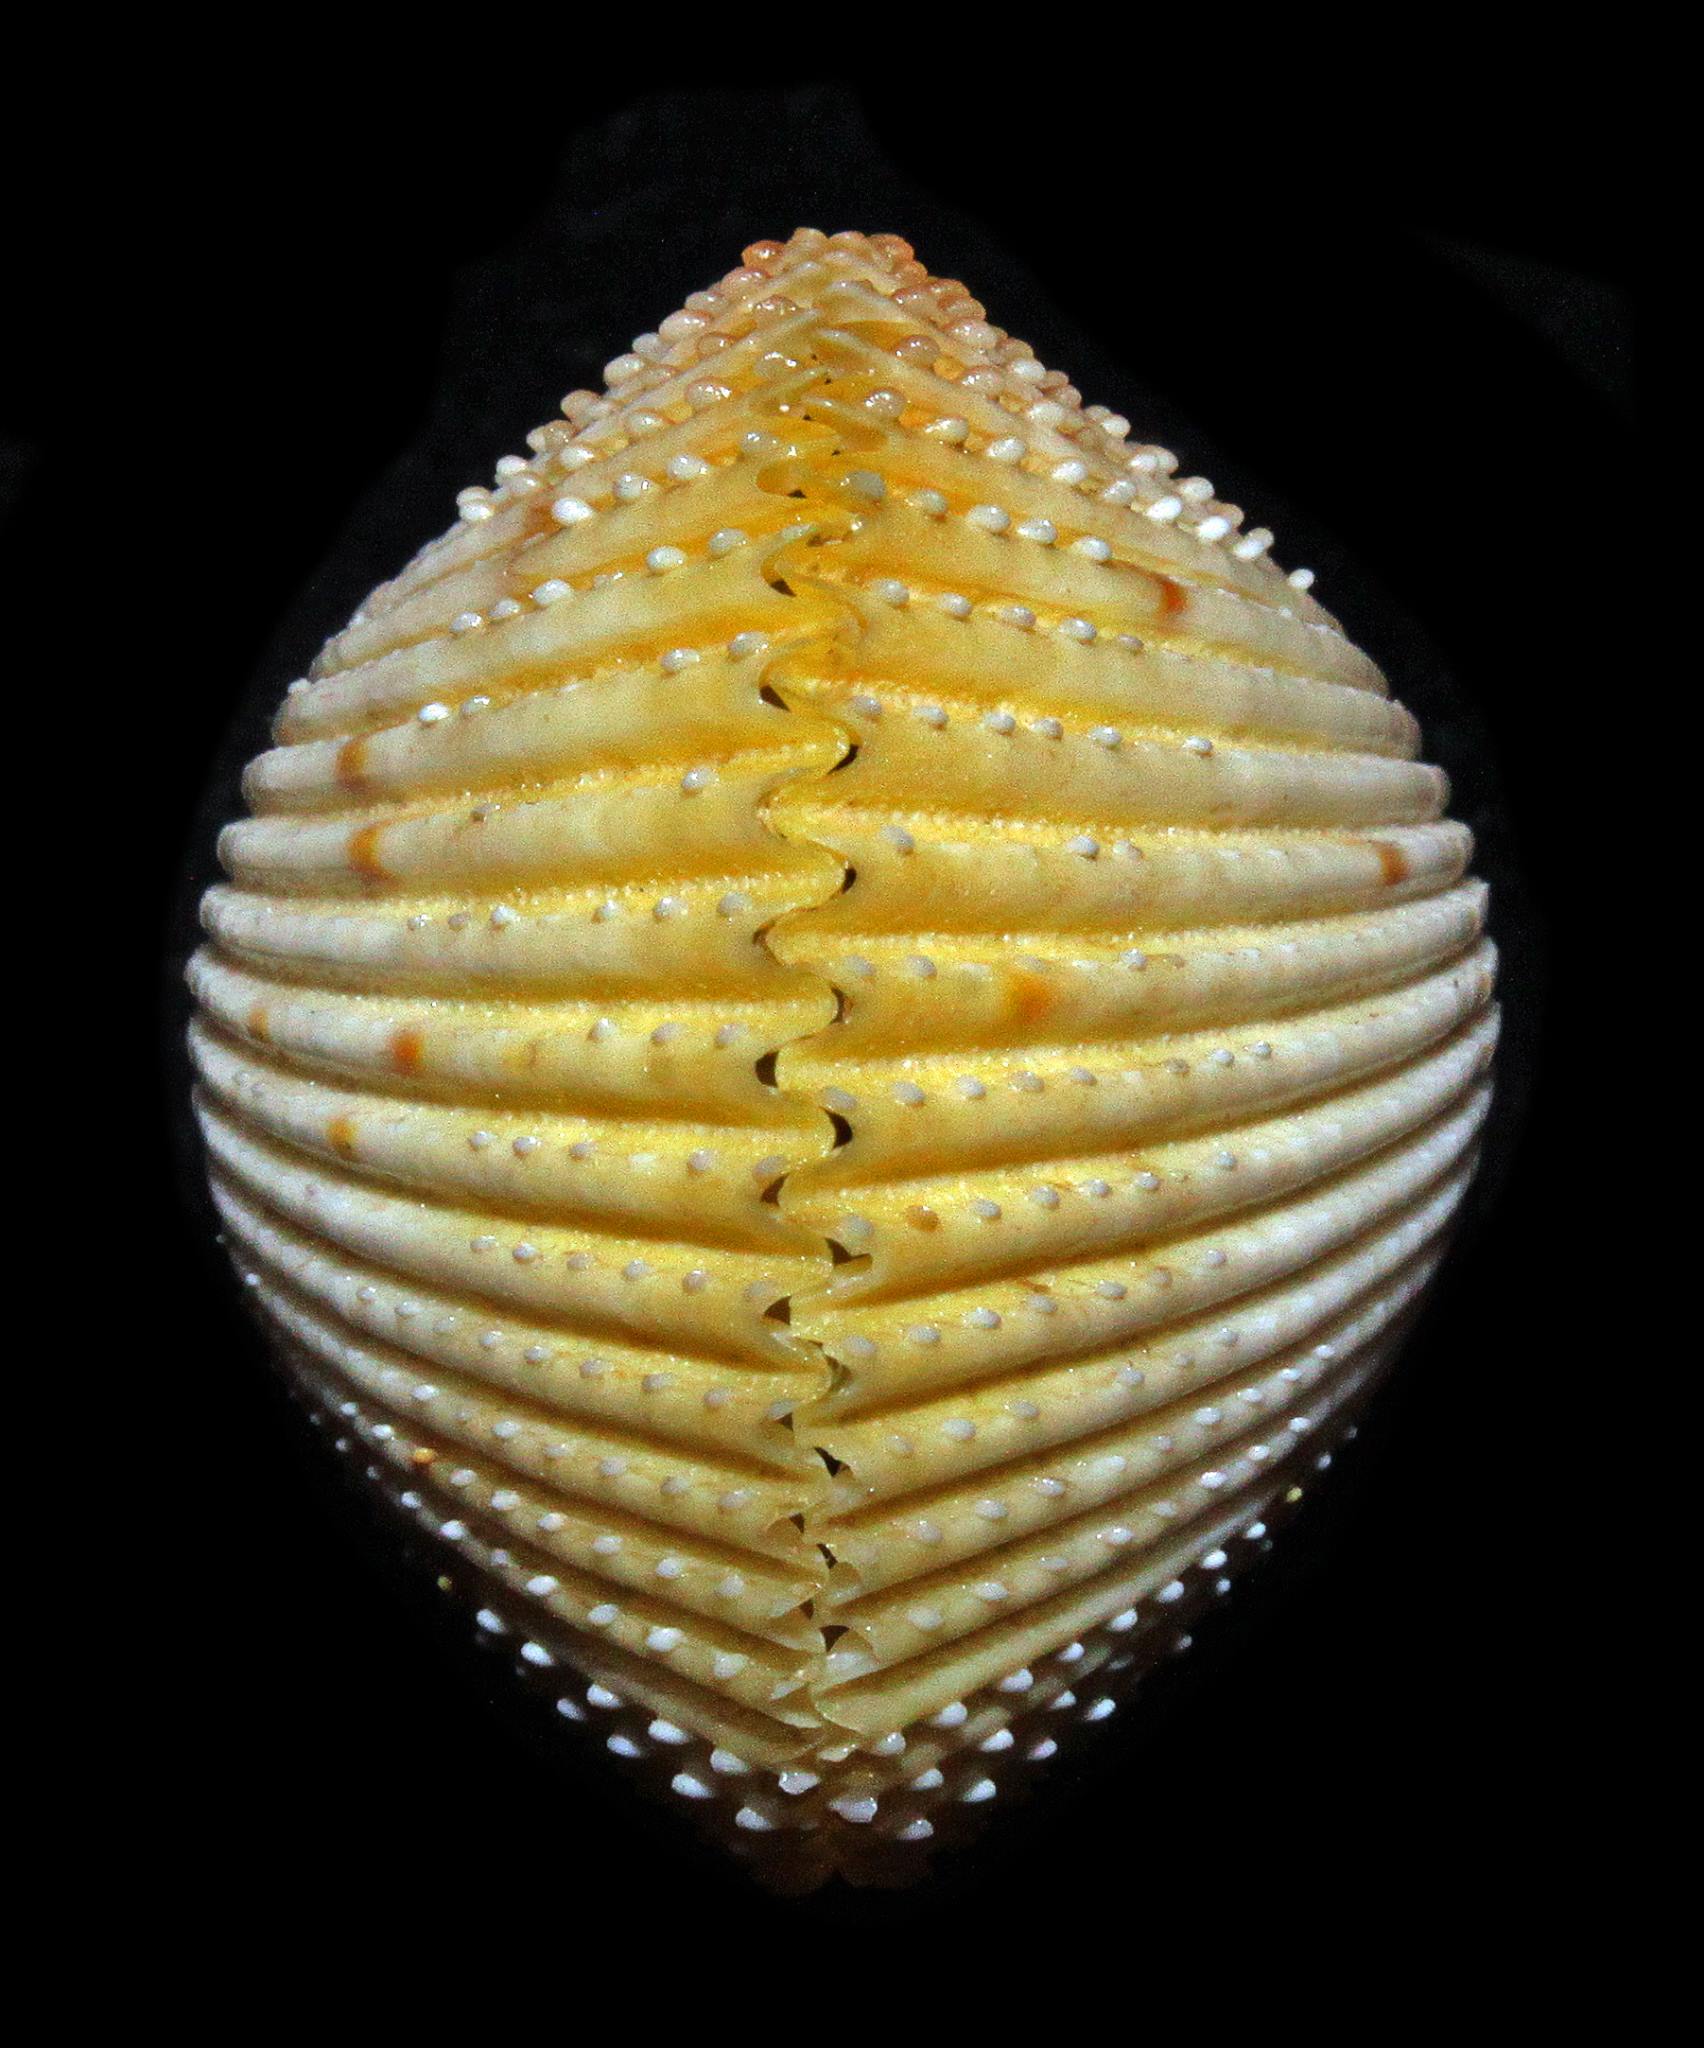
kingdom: Animalia
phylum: Mollusca
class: Bivalvia
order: Cardiida
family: Cardiidae
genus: Dallocardia
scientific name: Dallocardia muricata
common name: Yellow pricklycockle
